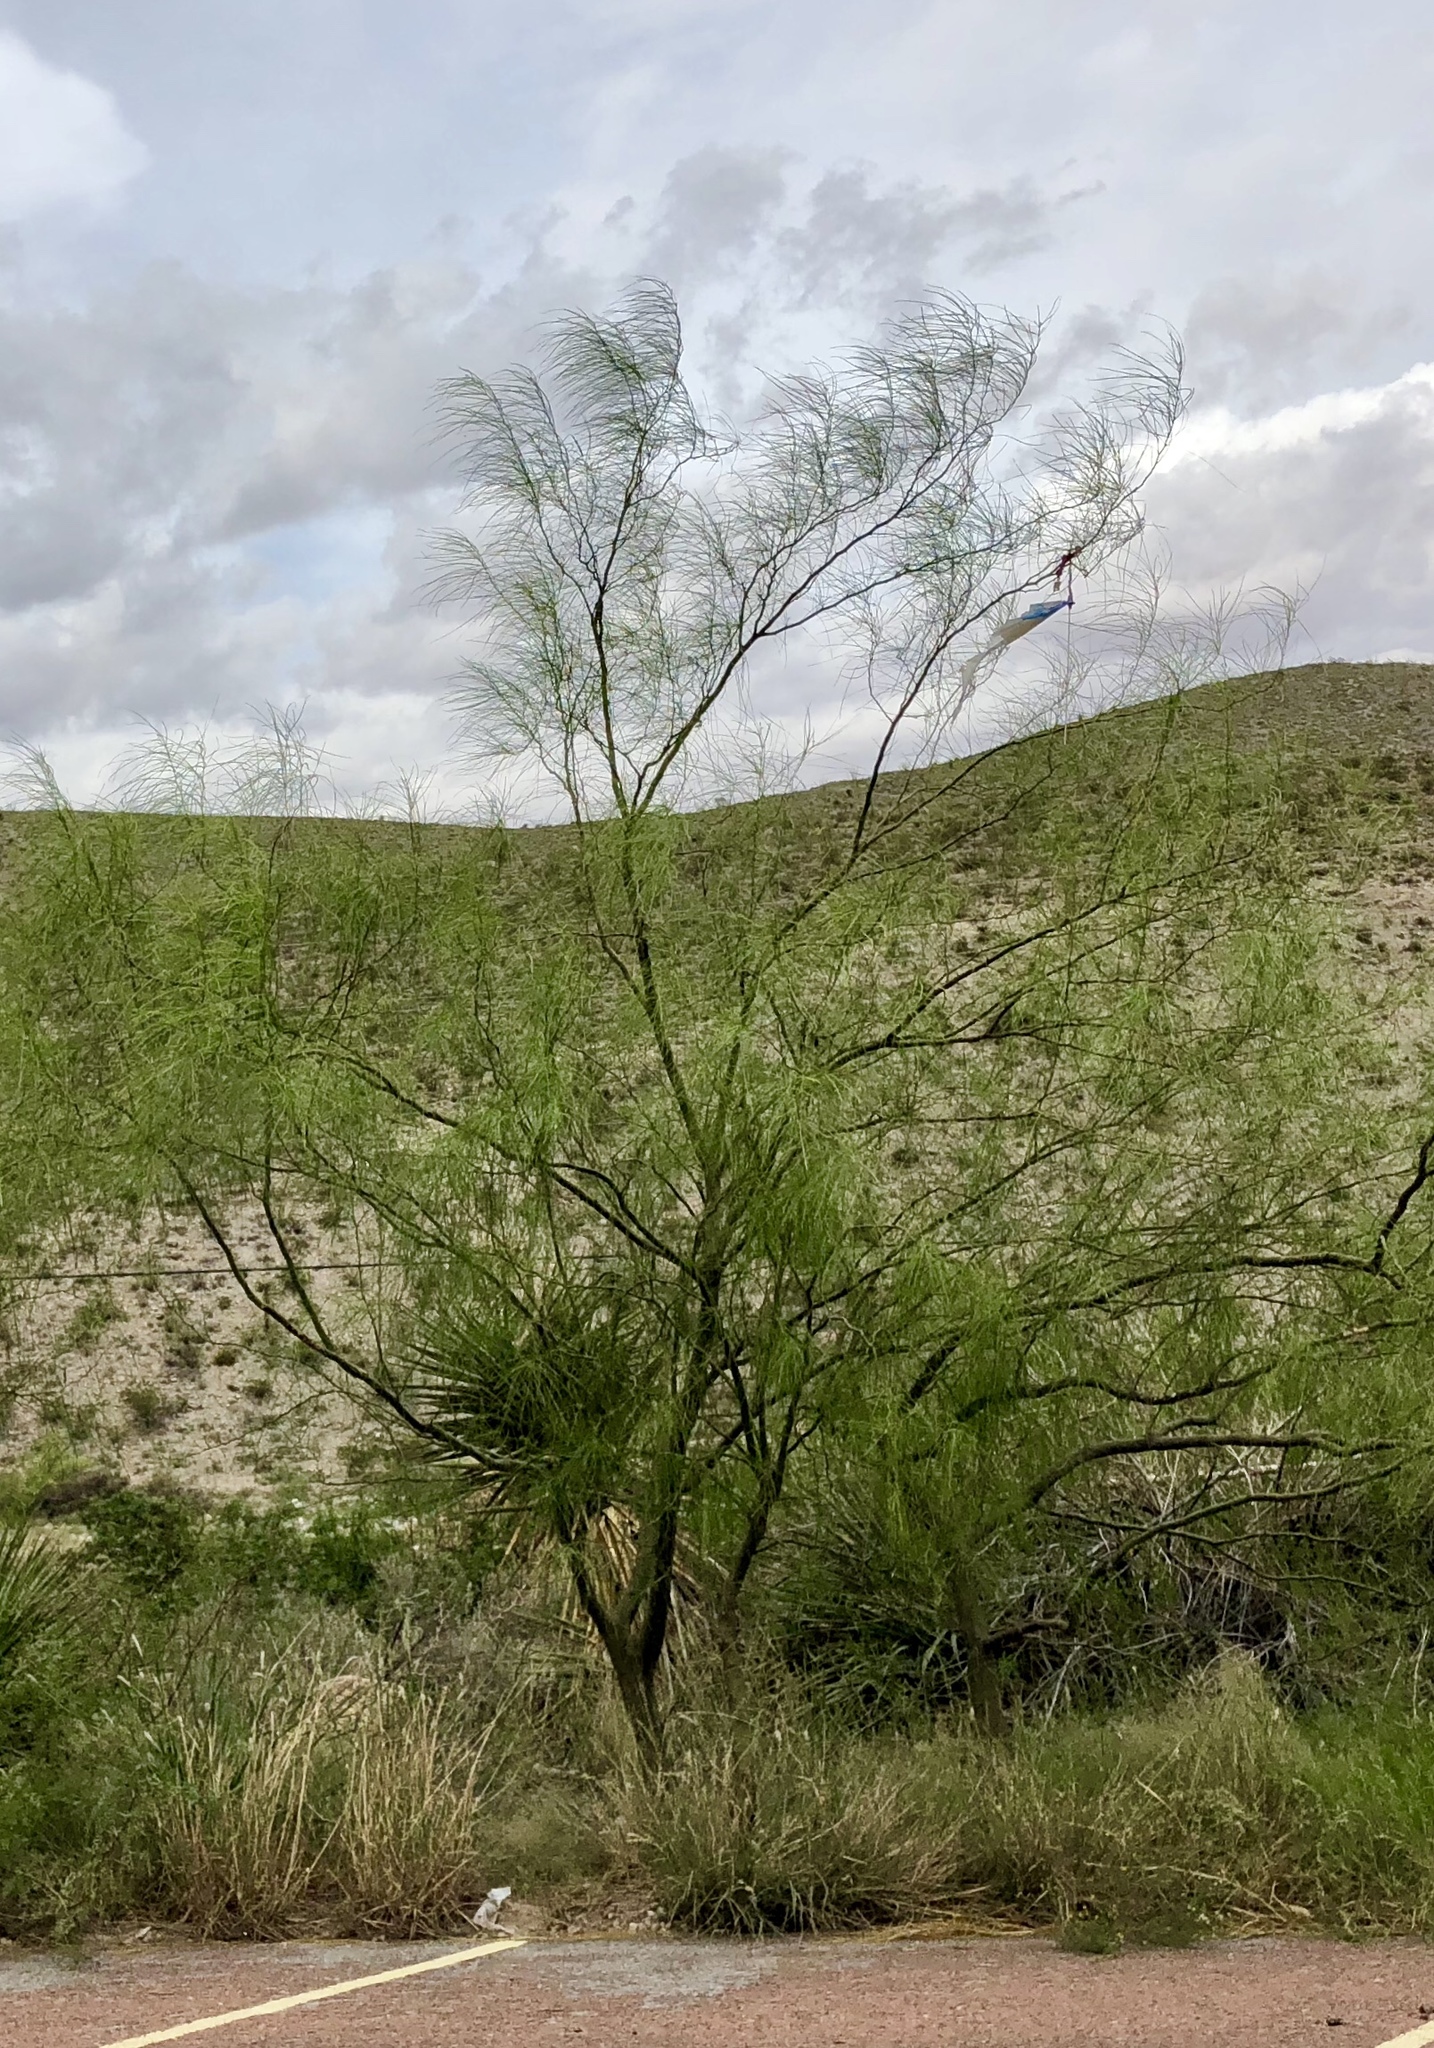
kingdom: Plantae
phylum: Tracheophyta
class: Magnoliopsida
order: Fabales
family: Fabaceae
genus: Parkinsonia
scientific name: Parkinsonia aculeata
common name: Jerusalem thorn
